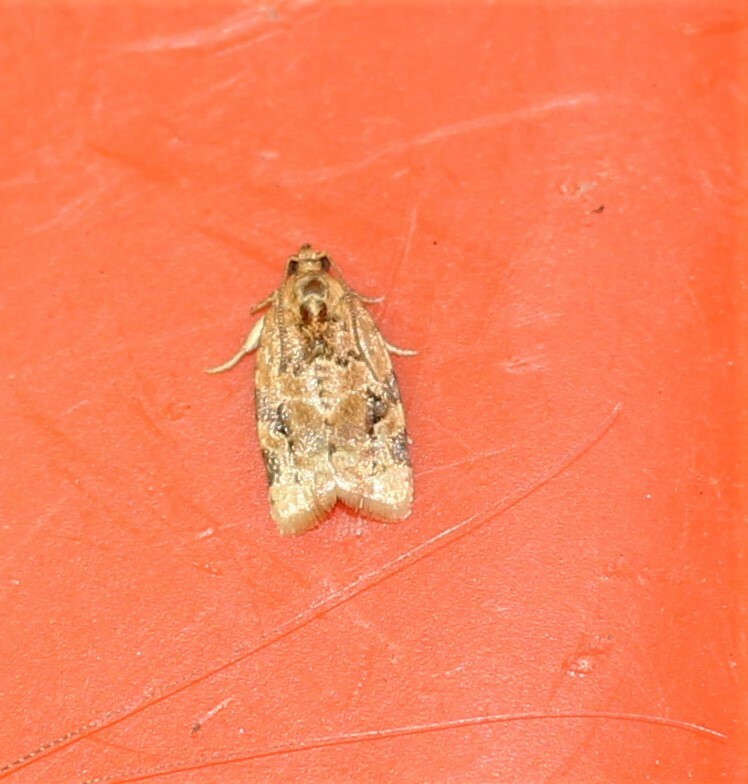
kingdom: Animalia
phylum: Arthropoda
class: Insecta
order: Lepidoptera
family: Tortricidae
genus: Argyrotaenia
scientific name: Argyrotaenia velutinana
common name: Red-banded leafroller moth
